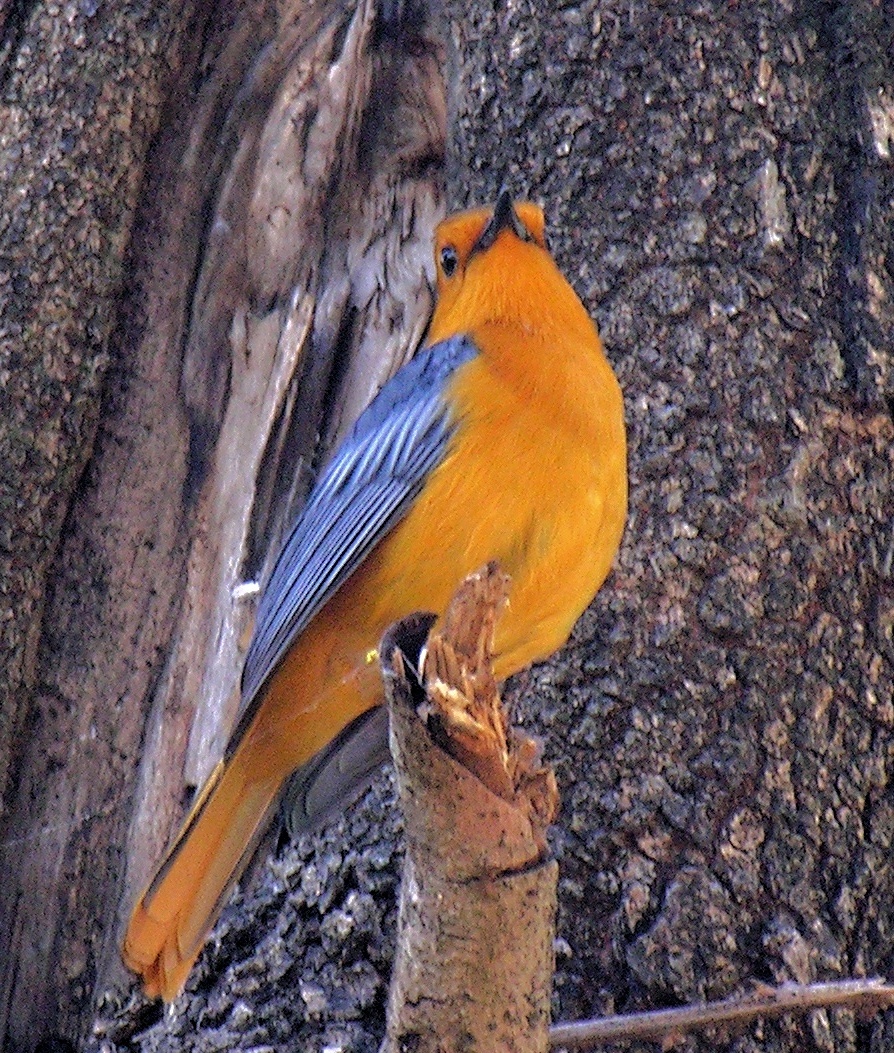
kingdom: Animalia
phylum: Chordata
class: Aves
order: Passeriformes
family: Muscicapidae
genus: Cossypha
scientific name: Cossypha natalensis
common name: Red-capped robin-chat
